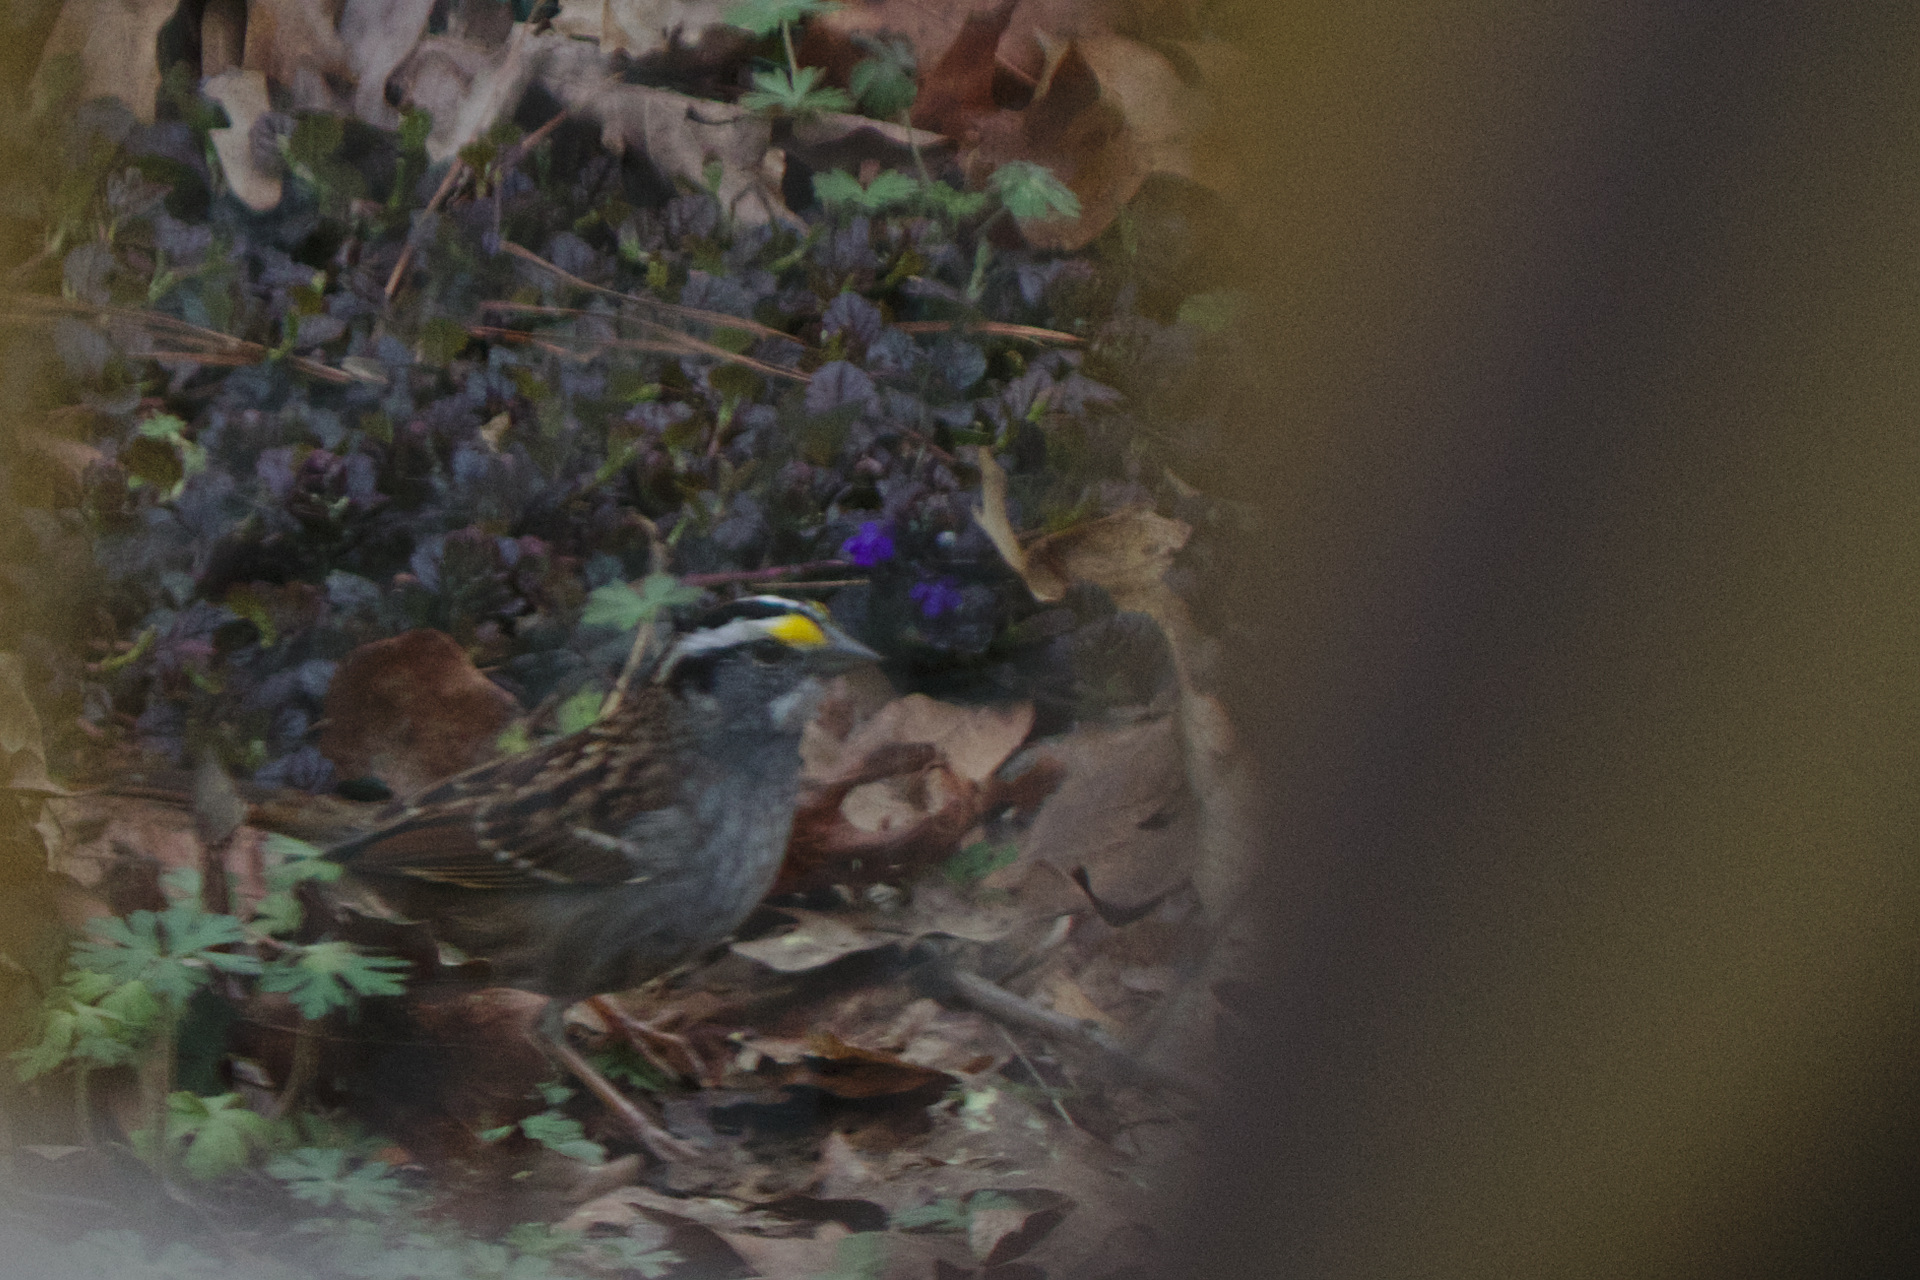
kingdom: Animalia
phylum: Chordata
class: Aves
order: Passeriformes
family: Passerellidae
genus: Zonotrichia
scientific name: Zonotrichia albicollis
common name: White-throated sparrow
